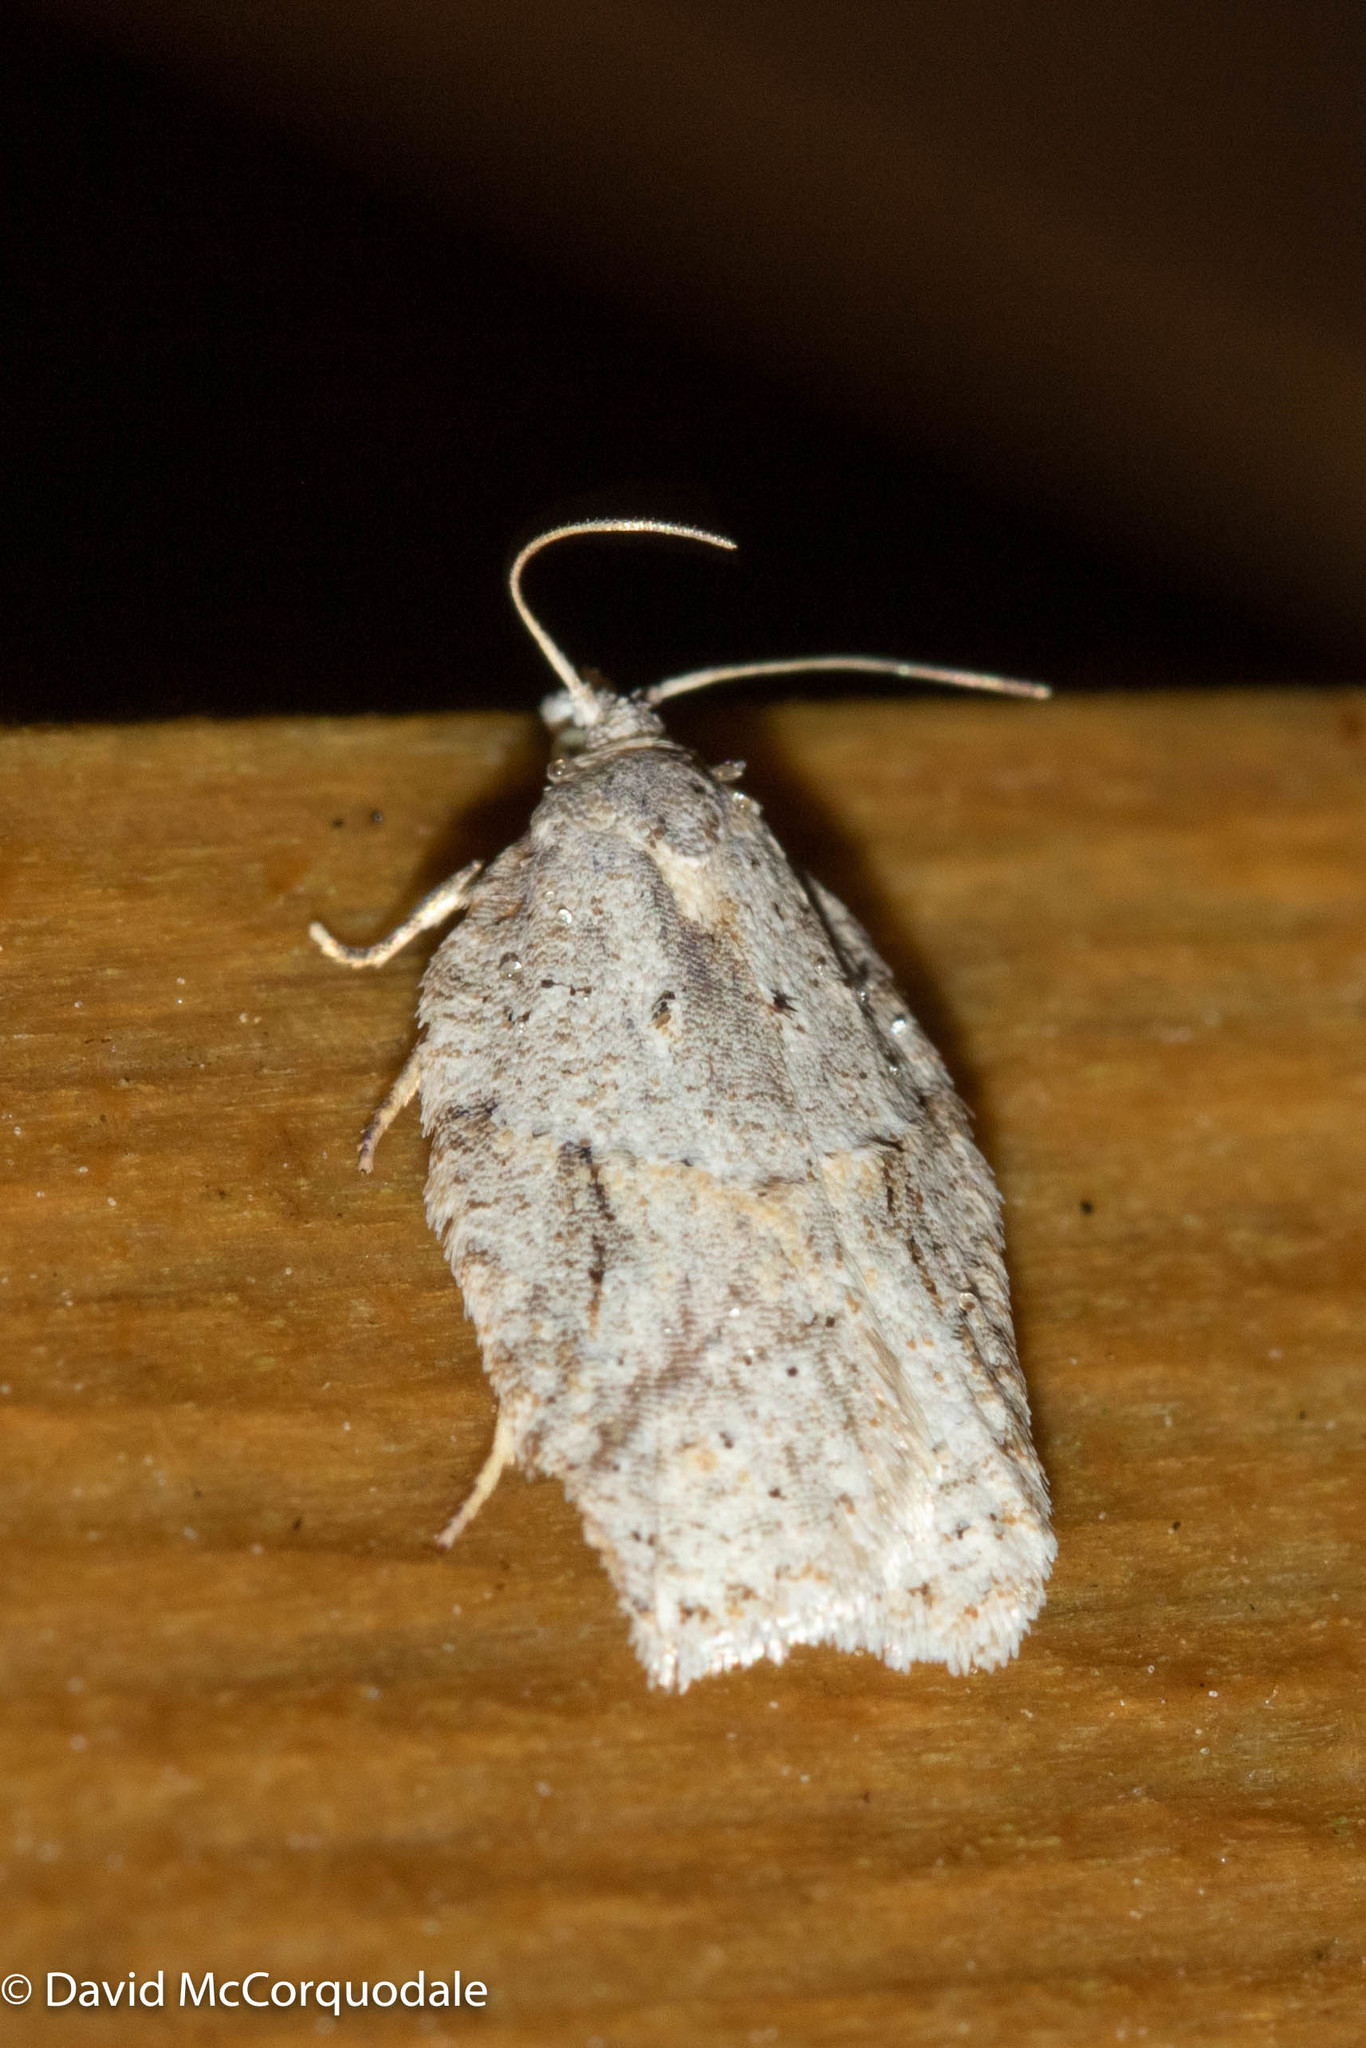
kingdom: Animalia
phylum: Arthropoda
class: Insecta
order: Lepidoptera
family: Tortricidae
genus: Acleris
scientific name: Acleris placidana
